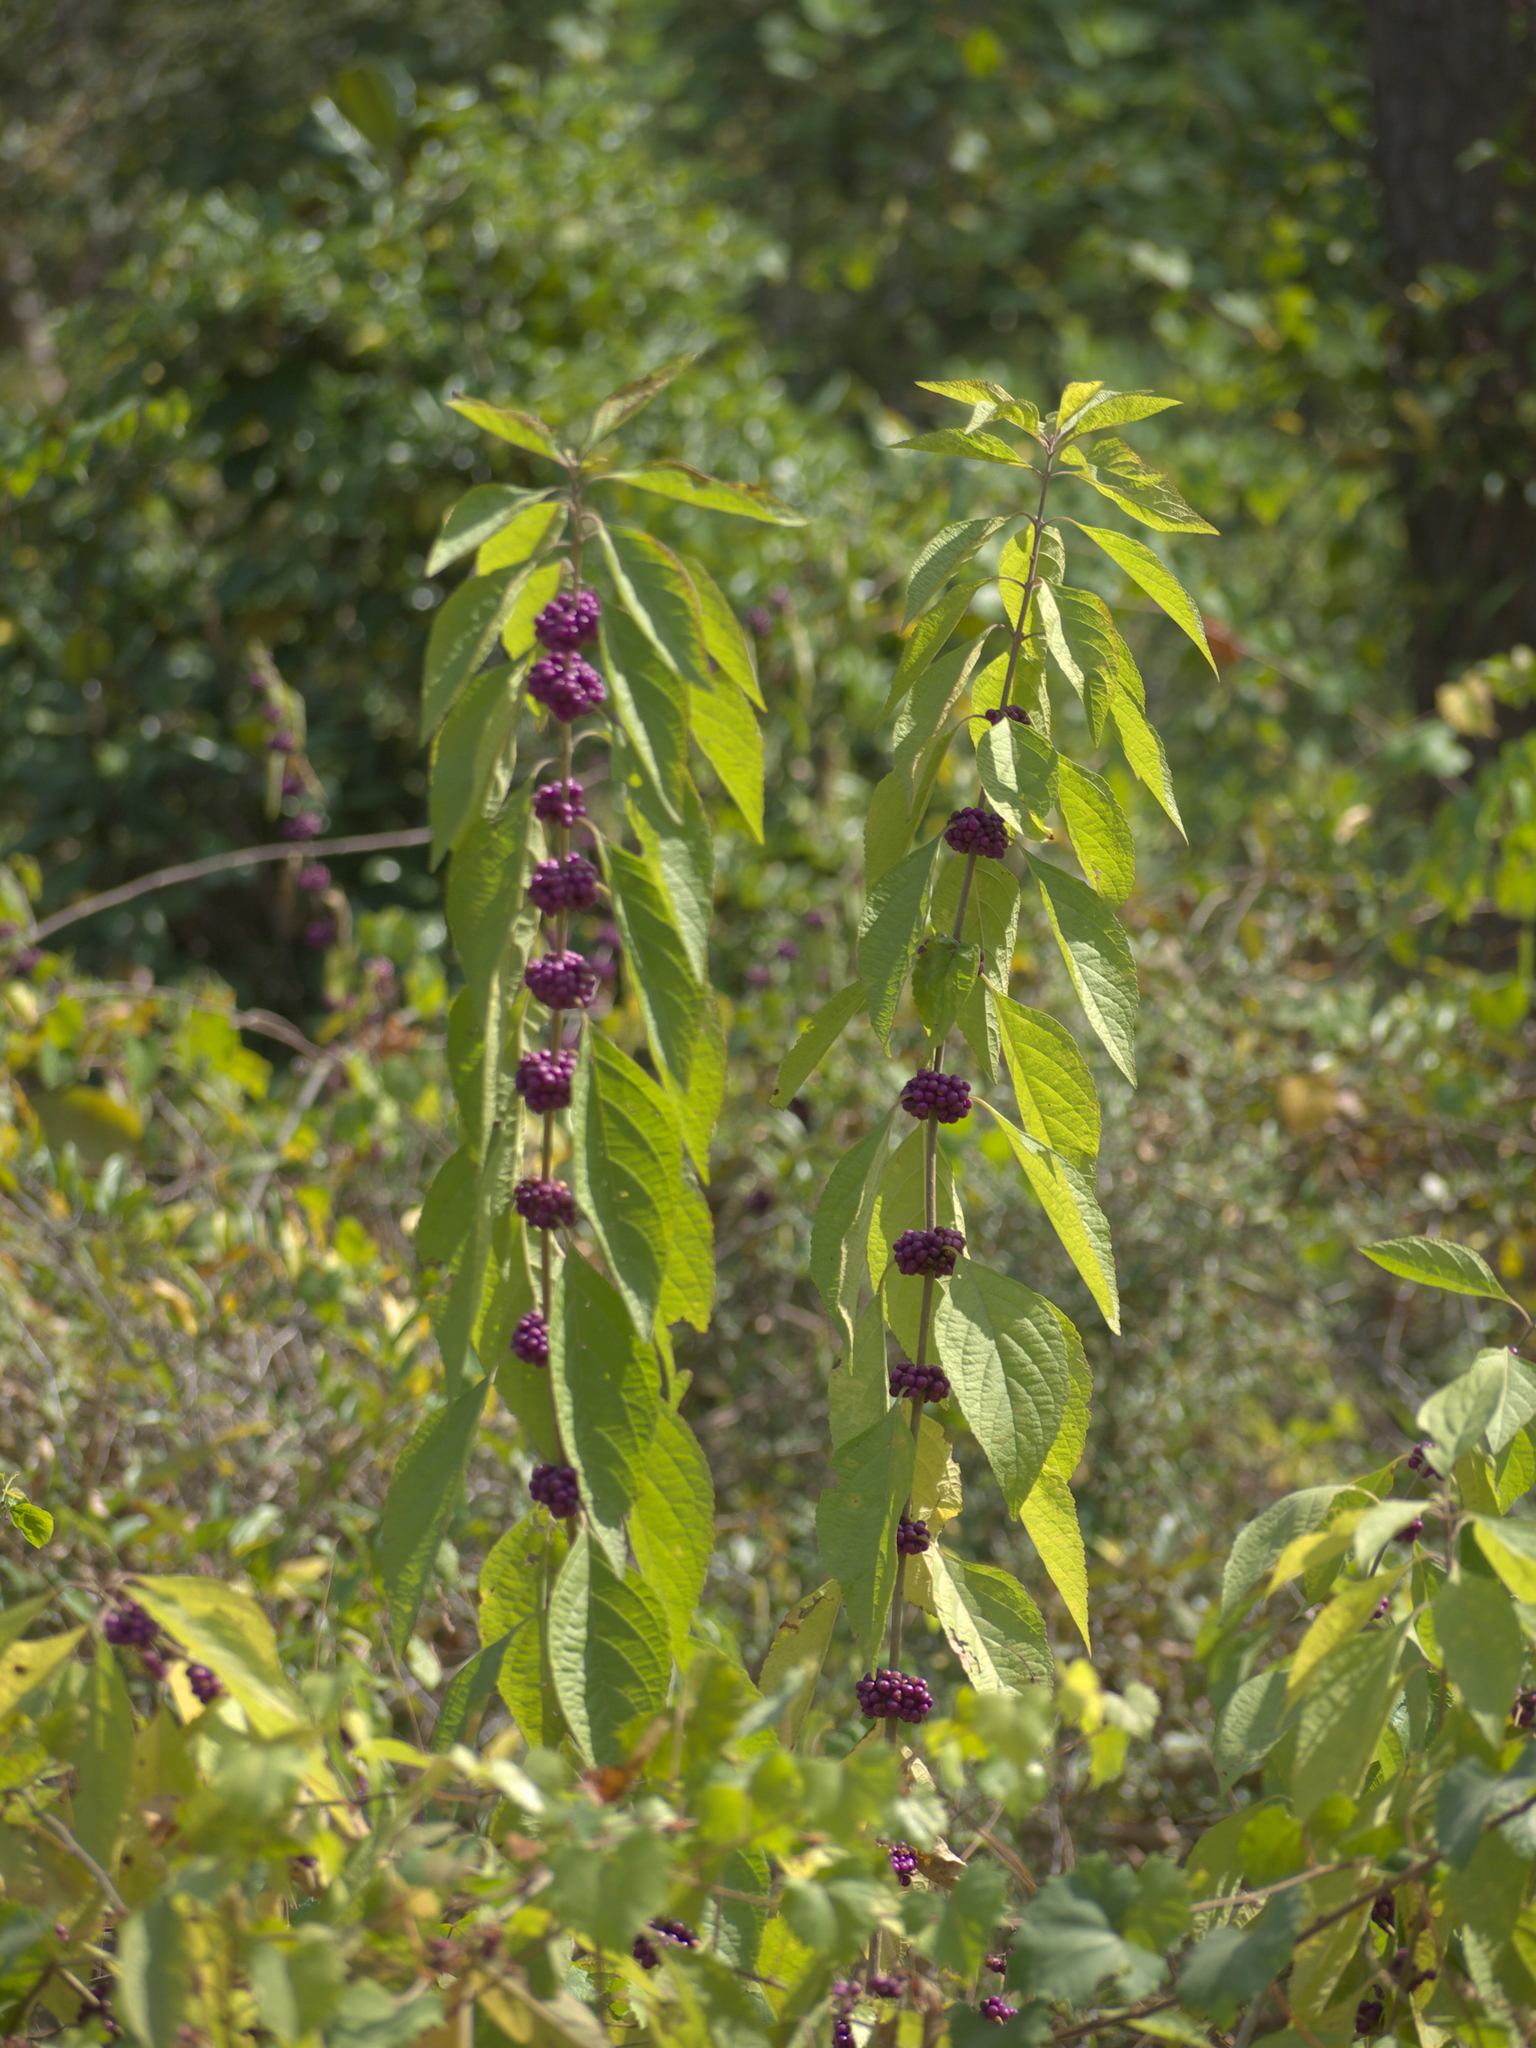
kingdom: Plantae
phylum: Tracheophyta
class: Magnoliopsida
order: Lamiales
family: Lamiaceae
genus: Callicarpa
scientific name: Callicarpa americana
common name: American beautyberry
